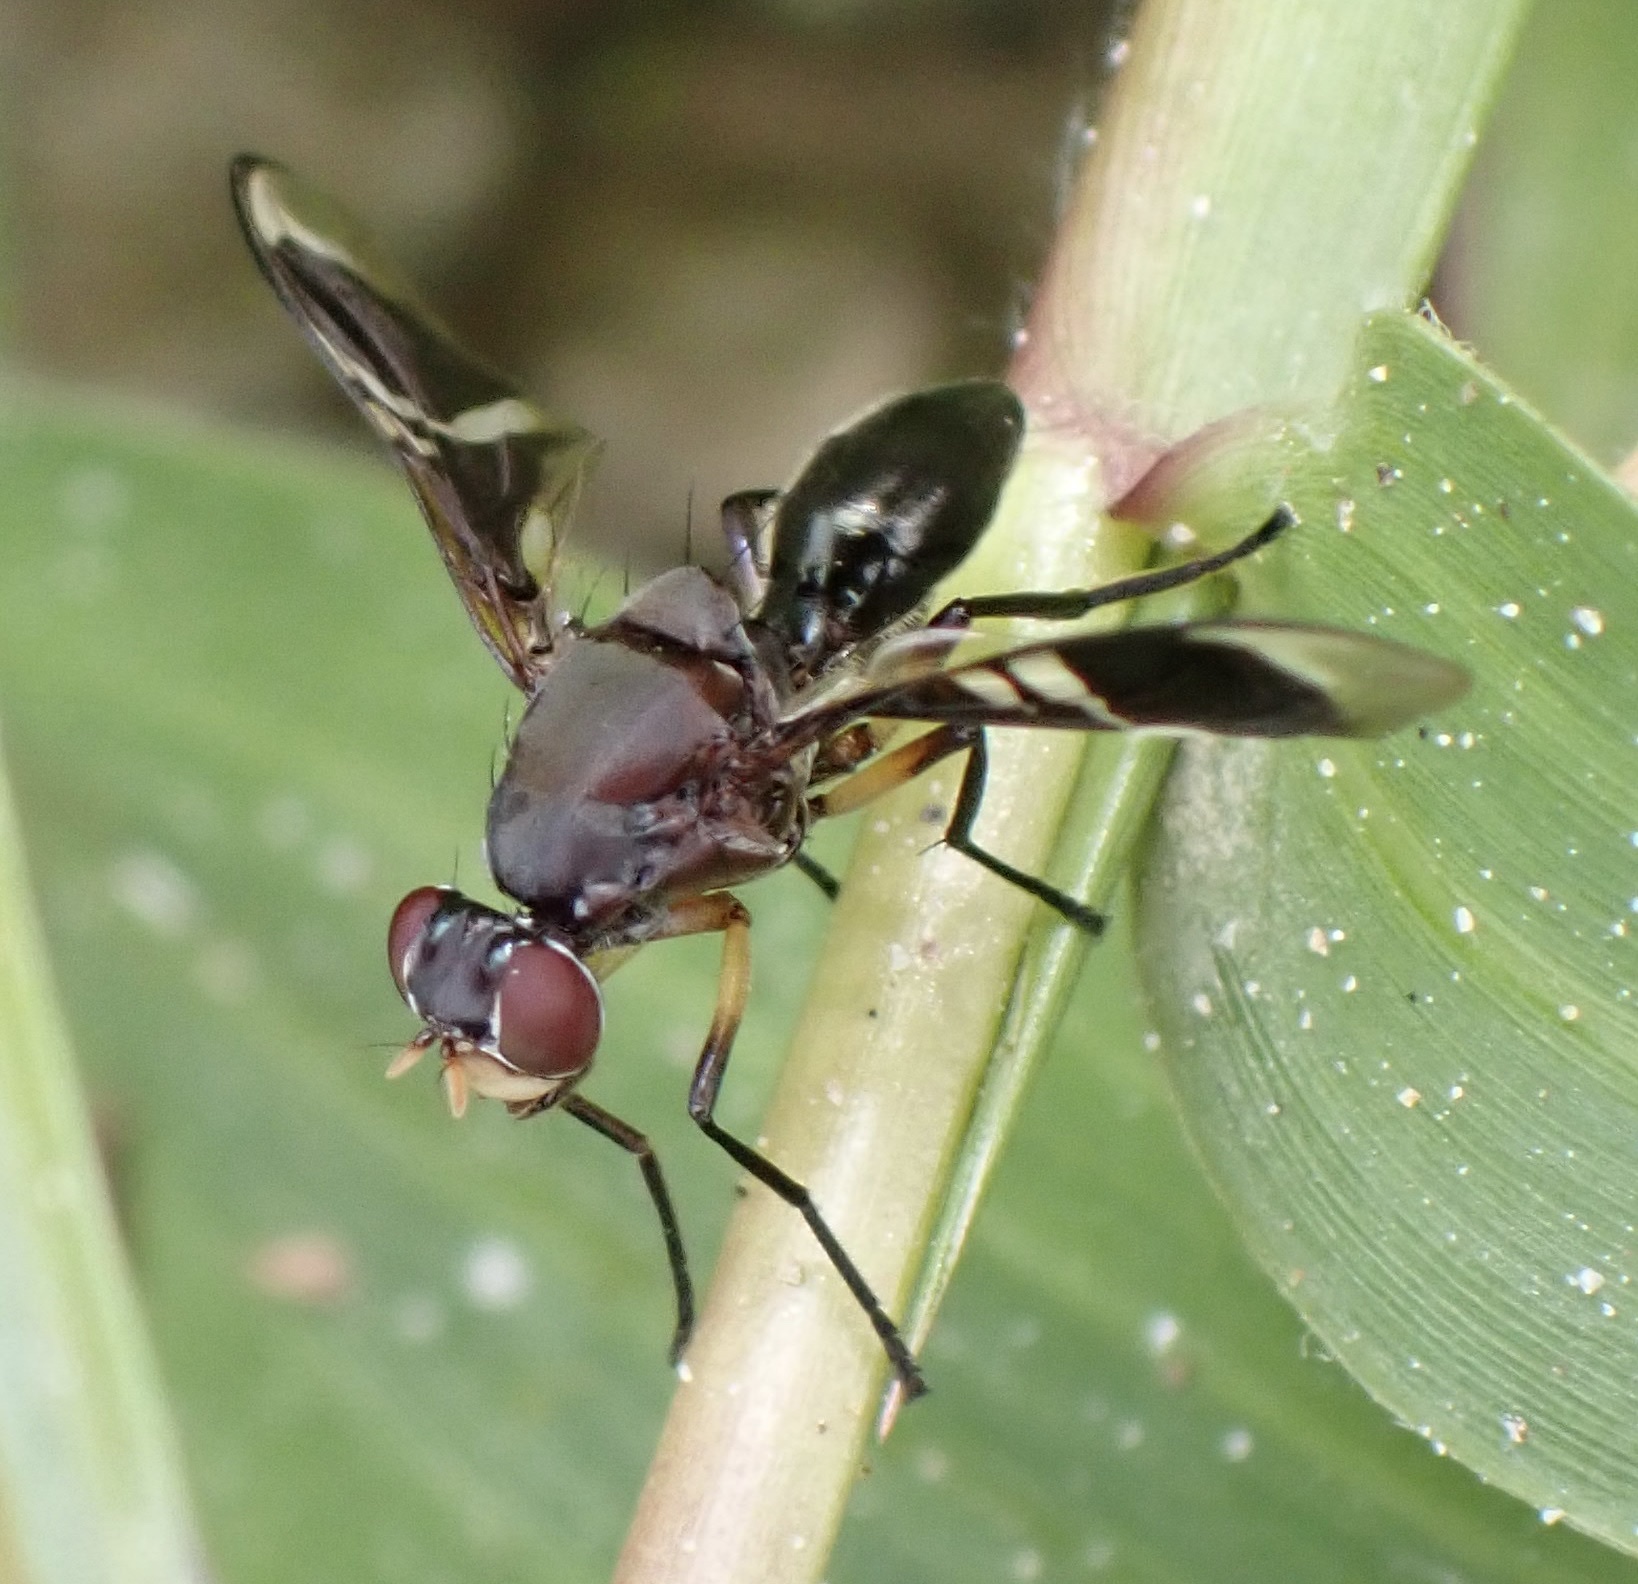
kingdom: Animalia
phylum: Arthropoda
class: Insecta
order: Diptera
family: Platystomatidae
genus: Cleitamia
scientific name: Cleitamia amabilis
